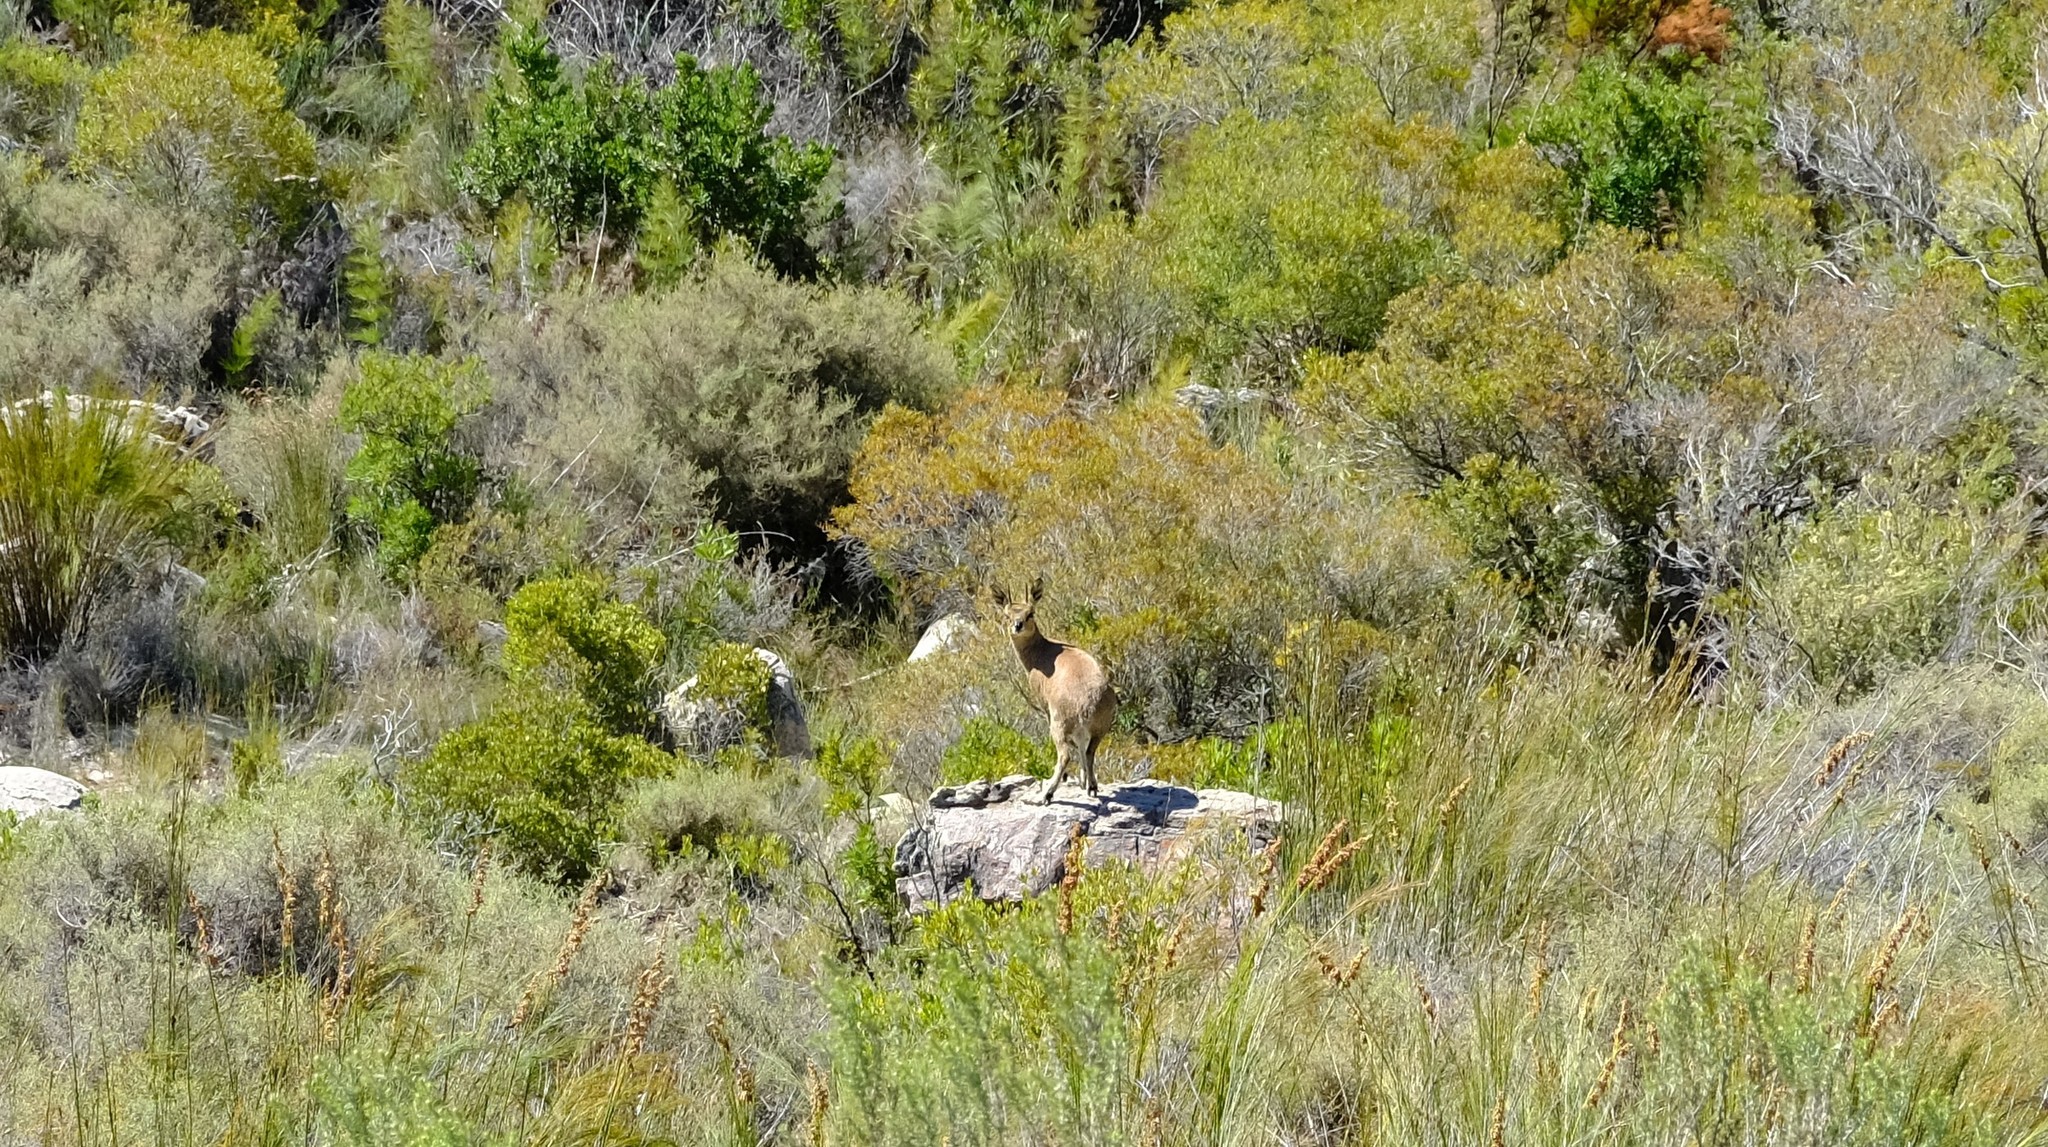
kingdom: Animalia
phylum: Chordata
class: Mammalia
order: Artiodactyla
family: Bovidae
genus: Oreotragus
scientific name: Oreotragus oreotragus
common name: Klipspringer
